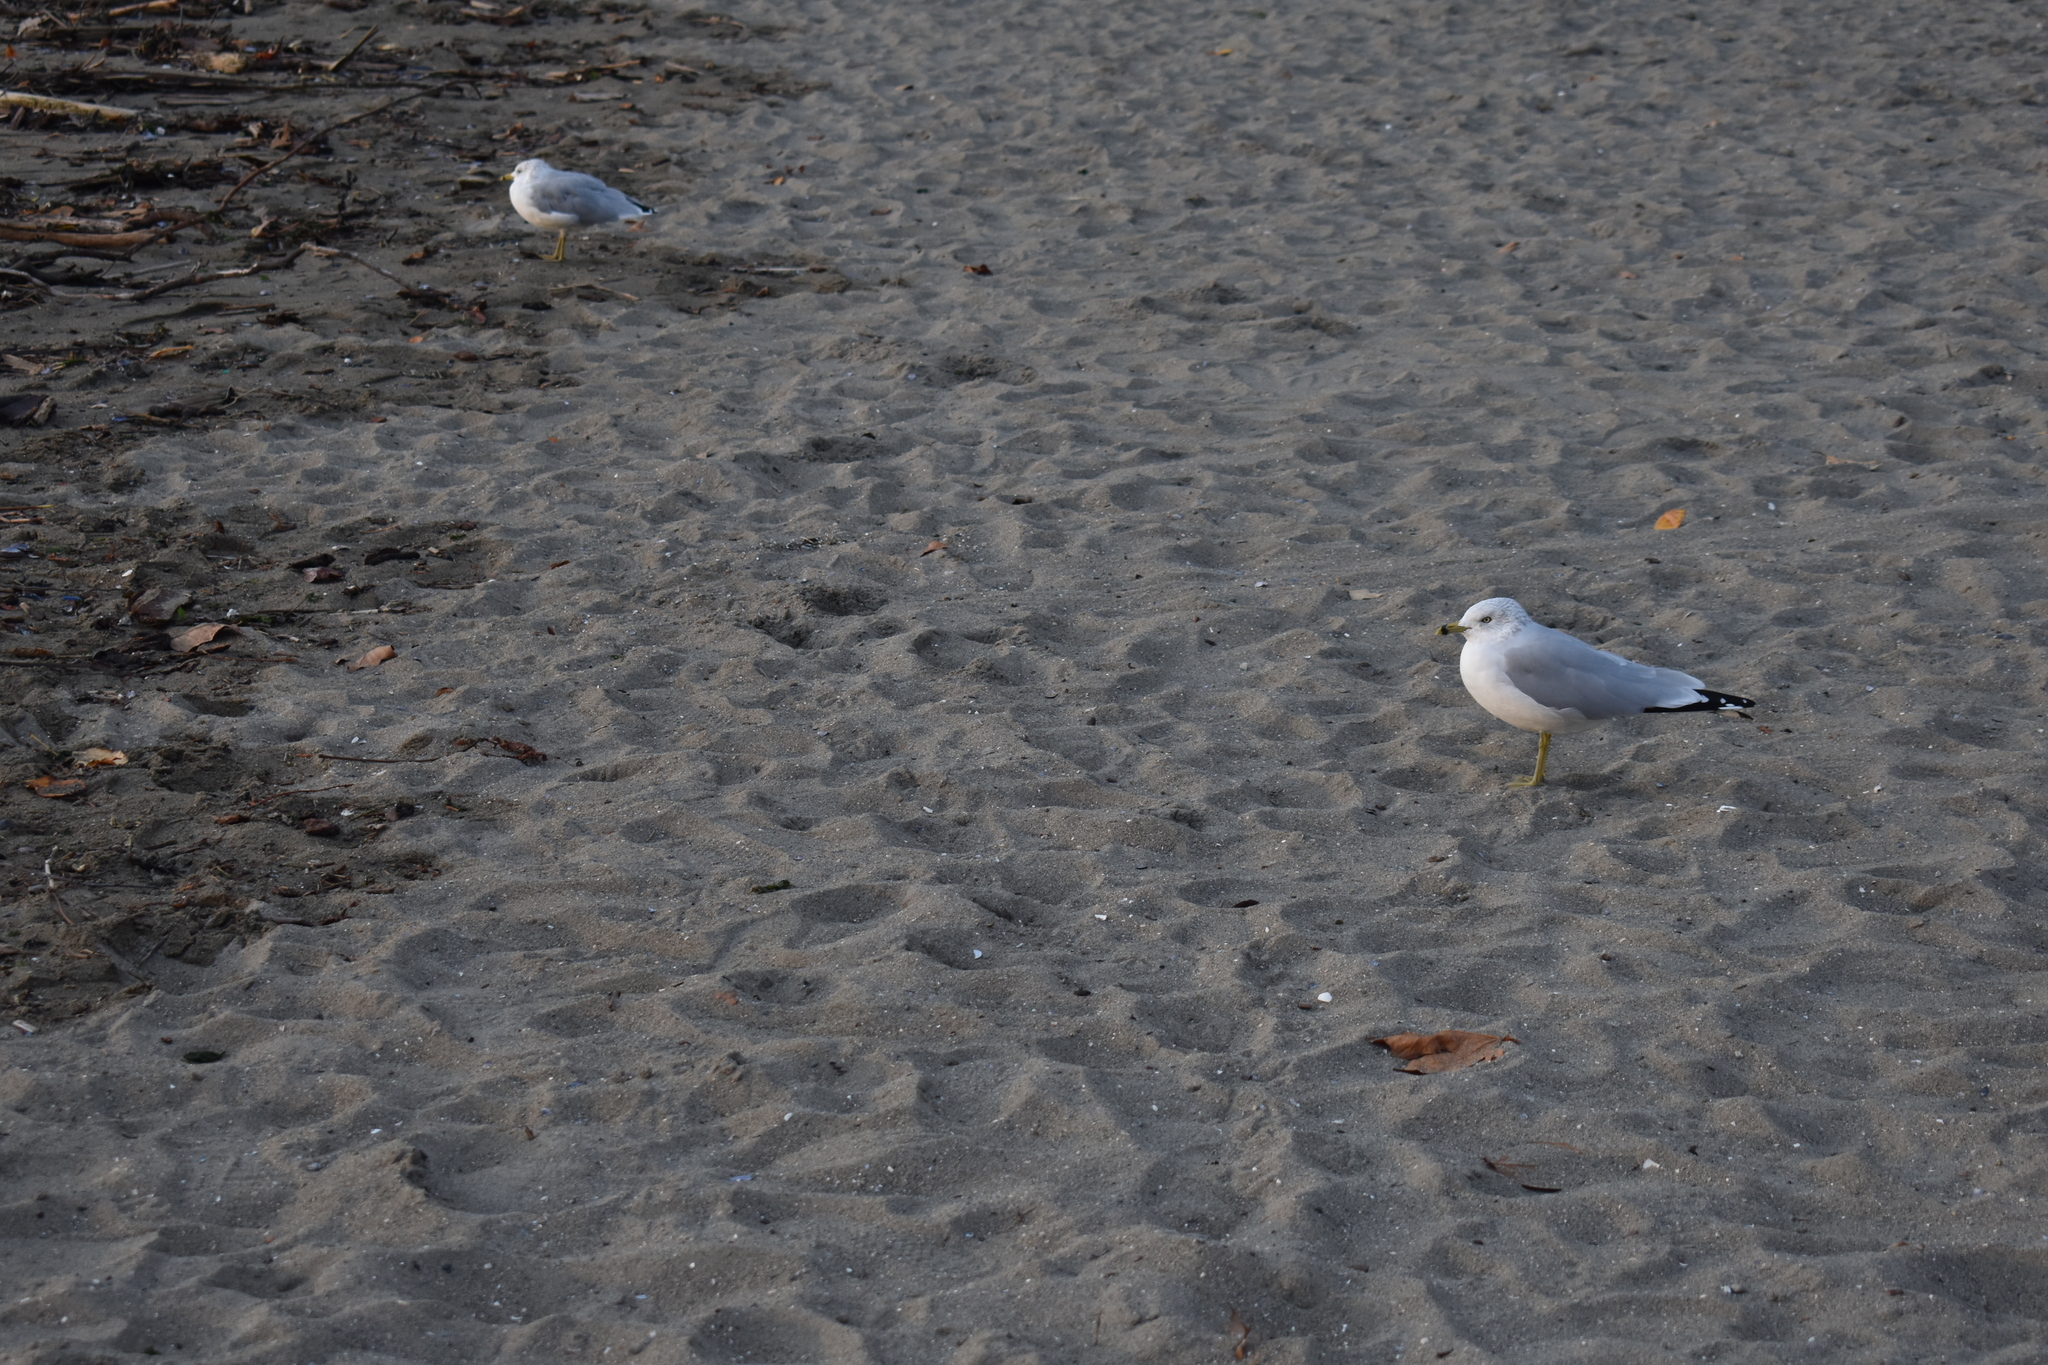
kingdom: Animalia
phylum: Chordata
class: Aves
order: Charadriiformes
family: Laridae
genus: Larus
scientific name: Larus delawarensis
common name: Ring-billed gull
